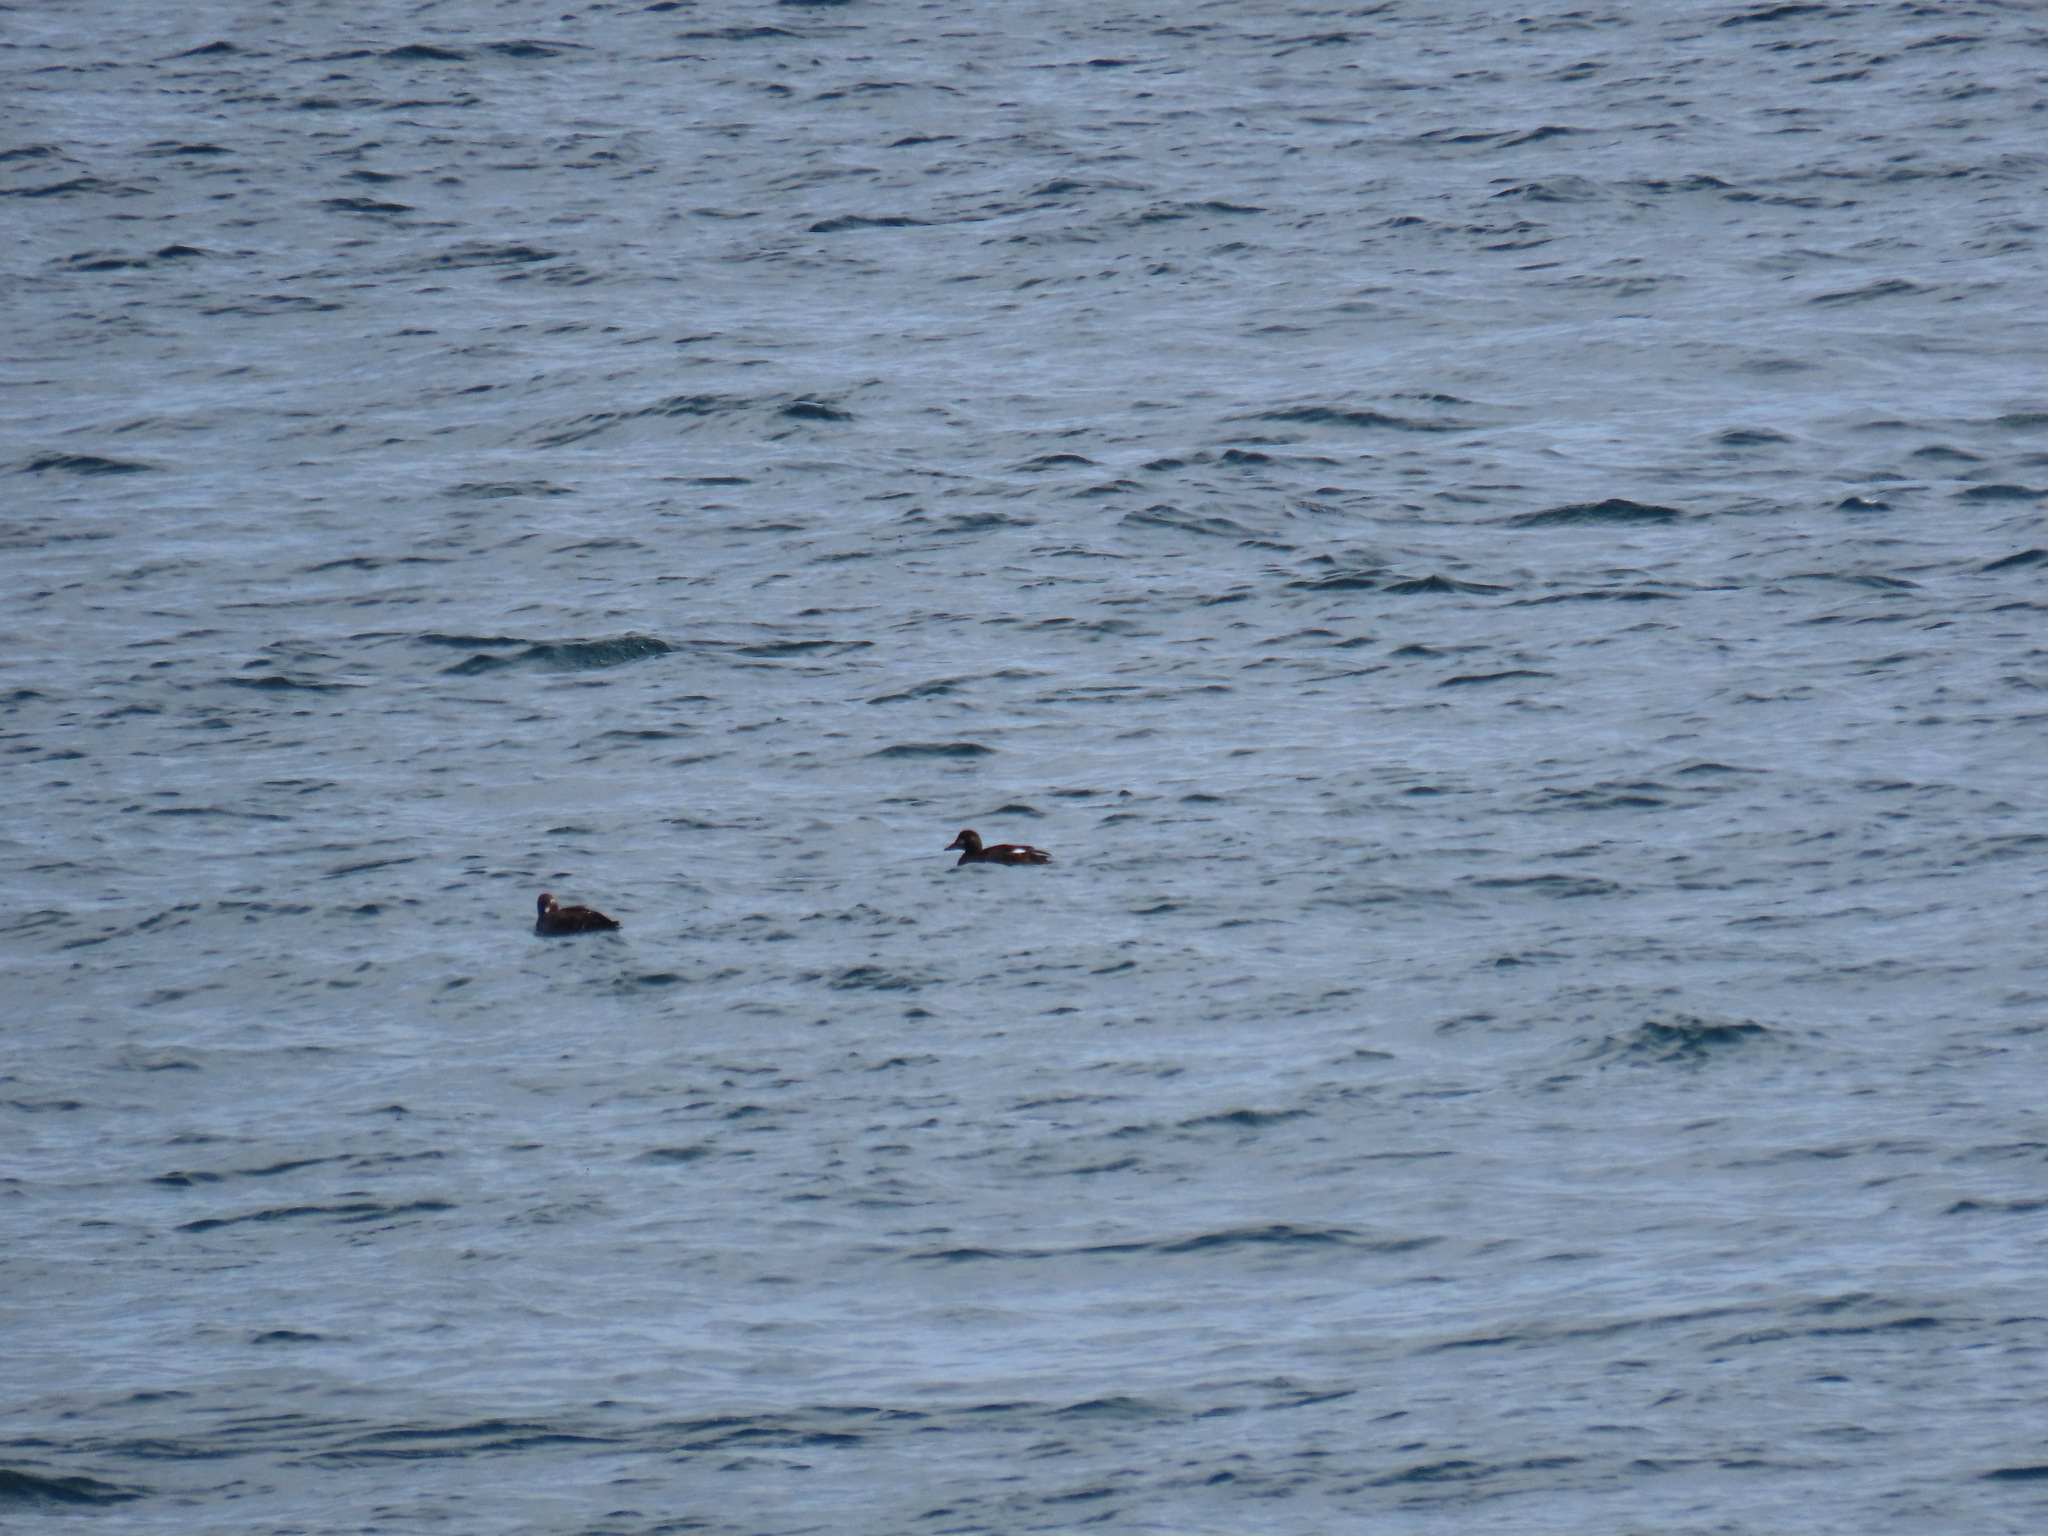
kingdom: Animalia
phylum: Chordata
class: Aves
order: Anseriformes
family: Anatidae
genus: Melanitta
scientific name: Melanitta deglandi
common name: White-winged scoter
